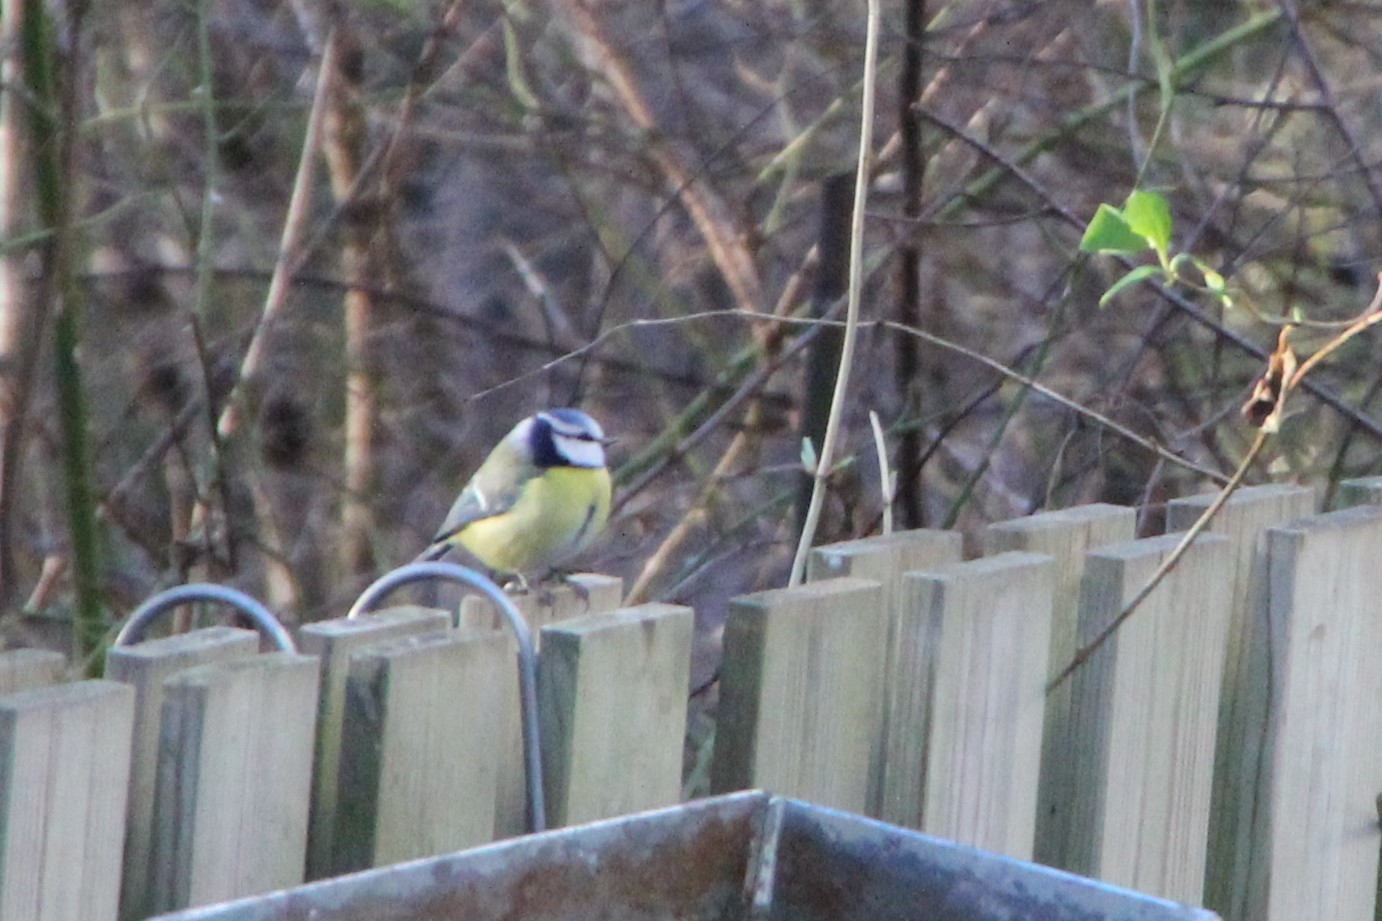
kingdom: Animalia
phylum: Chordata
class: Aves
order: Passeriformes
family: Paridae
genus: Cyanistes
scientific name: Cyanistes caeruleus
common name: Eurasian blue tit
